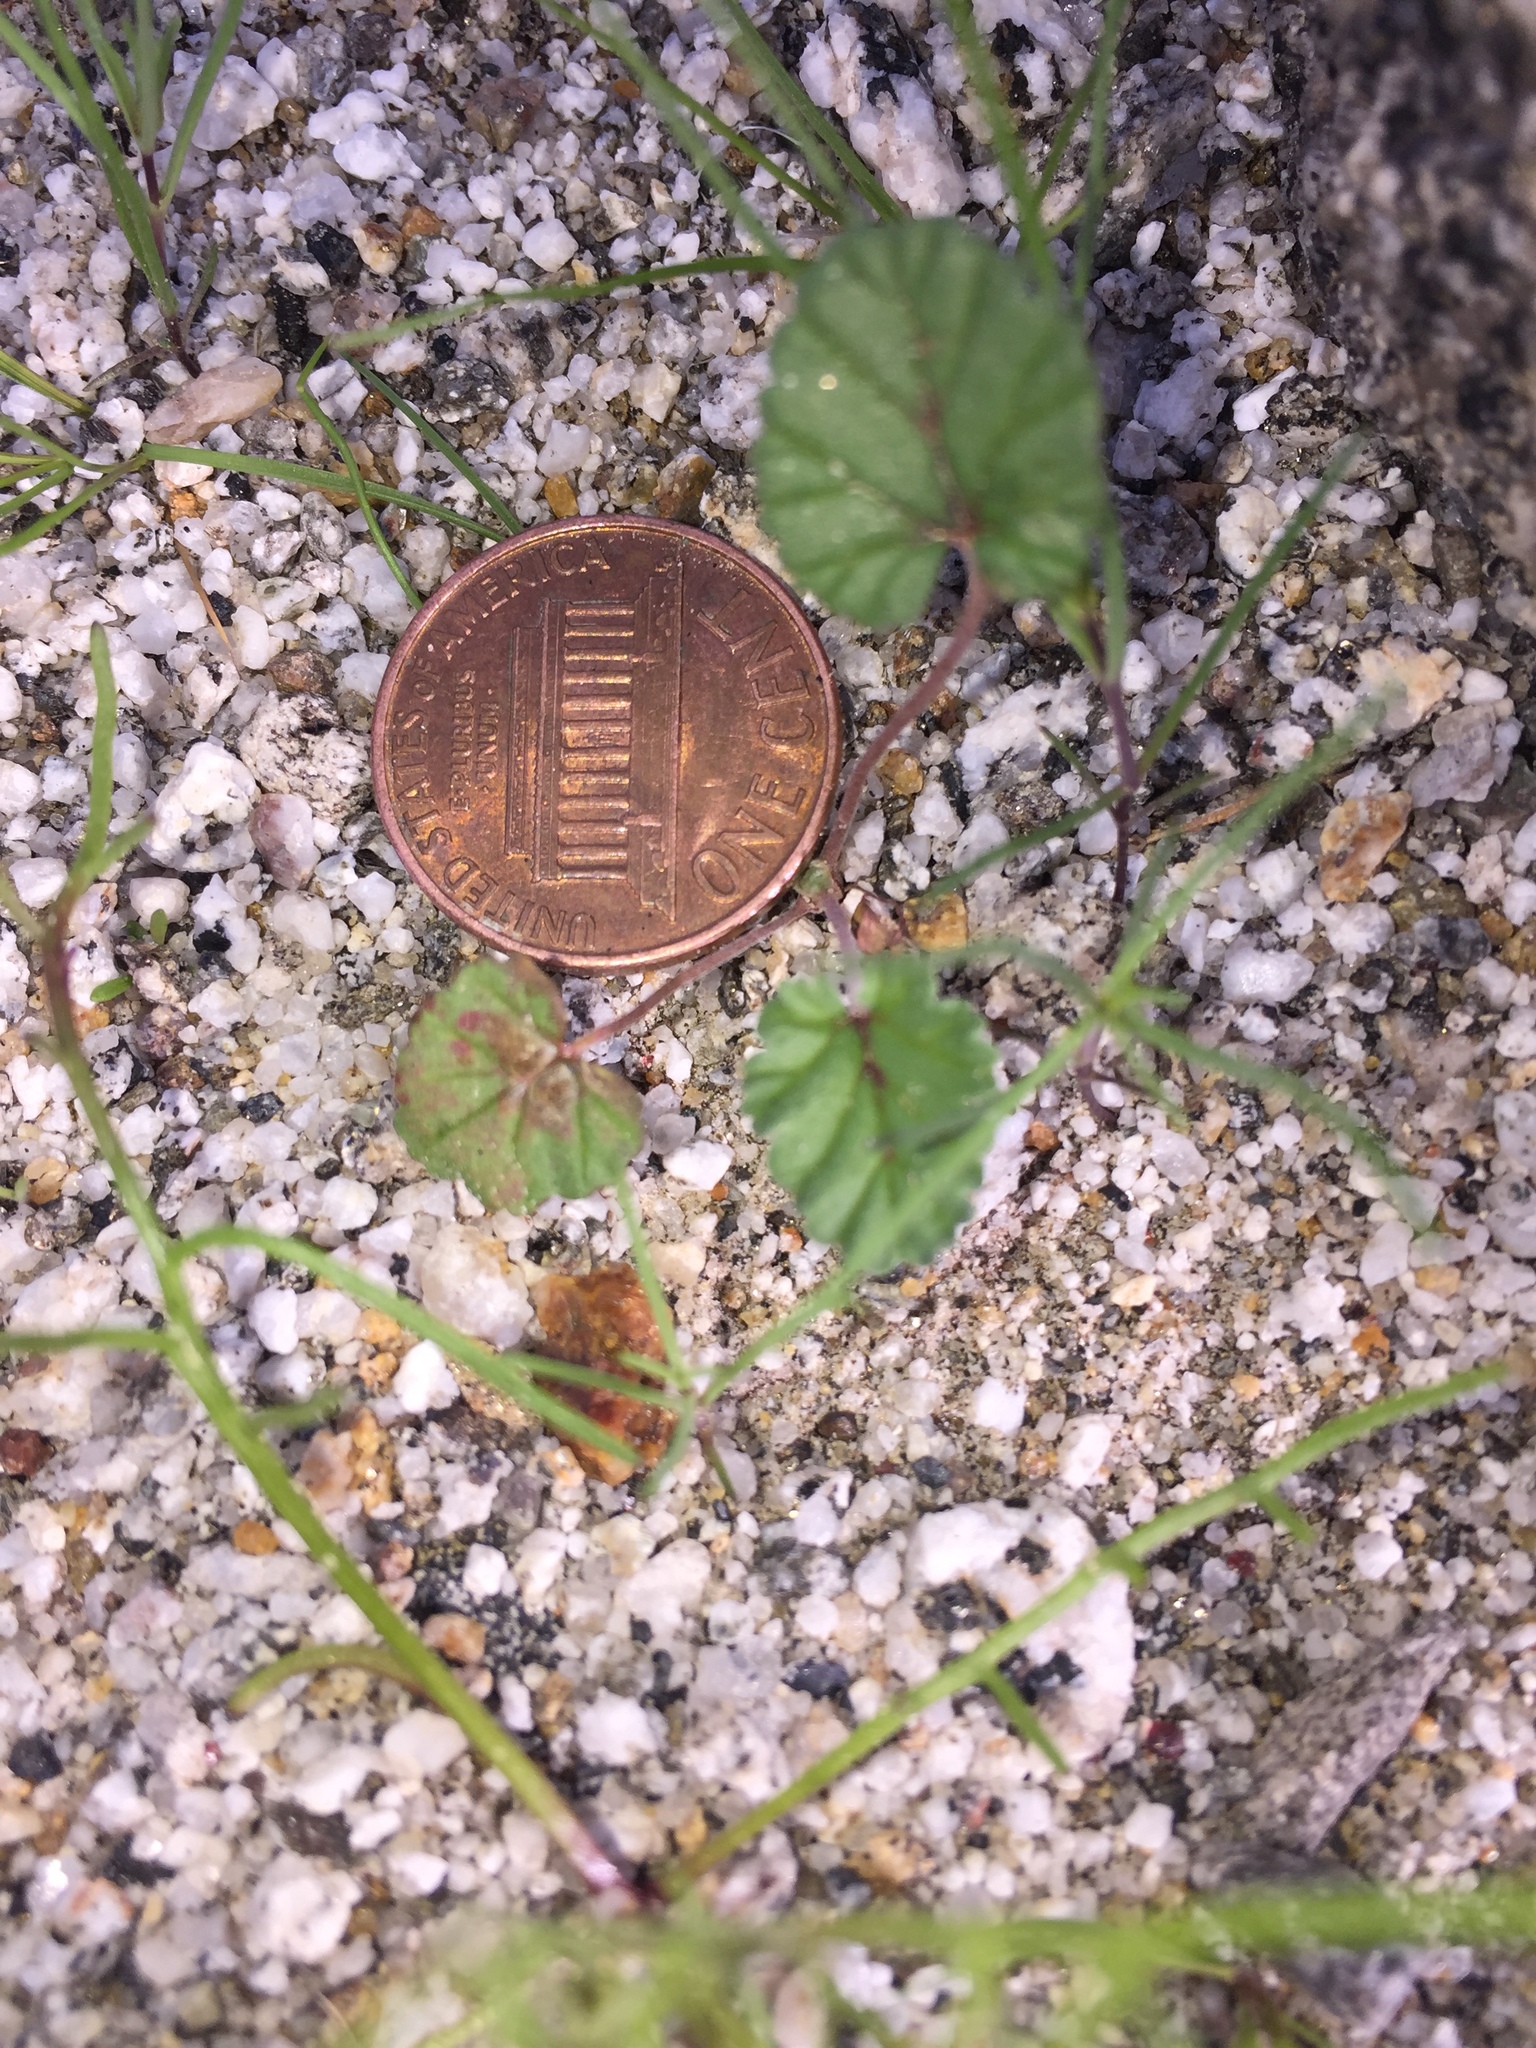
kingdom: Plantae
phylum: Tracheophyta
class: Magnoliopsida
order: Geraniales
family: Geraniaceae
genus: Erodium
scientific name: Erodium texanum
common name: Texas stork's-bill
